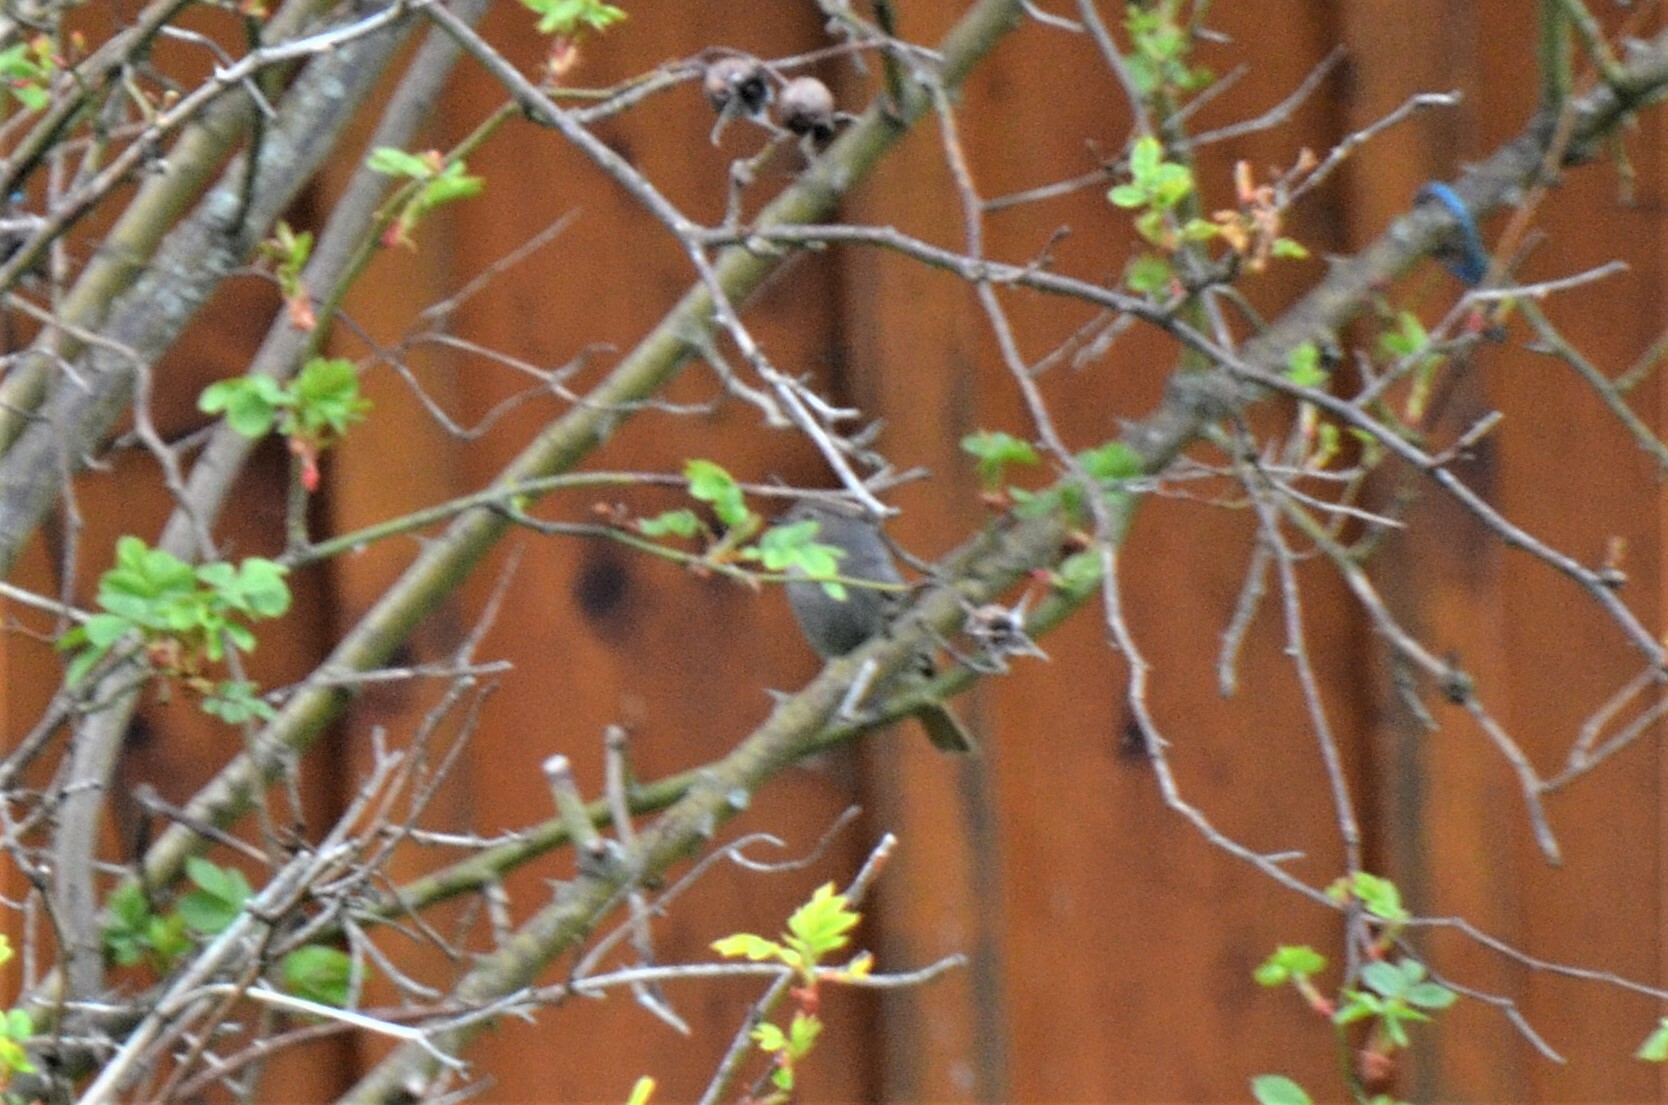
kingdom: Animalia
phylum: Chordata
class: Aves
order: Passeriformes
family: Muscicapidae
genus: Phoenicurus
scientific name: Phoenicurus ochruros
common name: Black redstart
